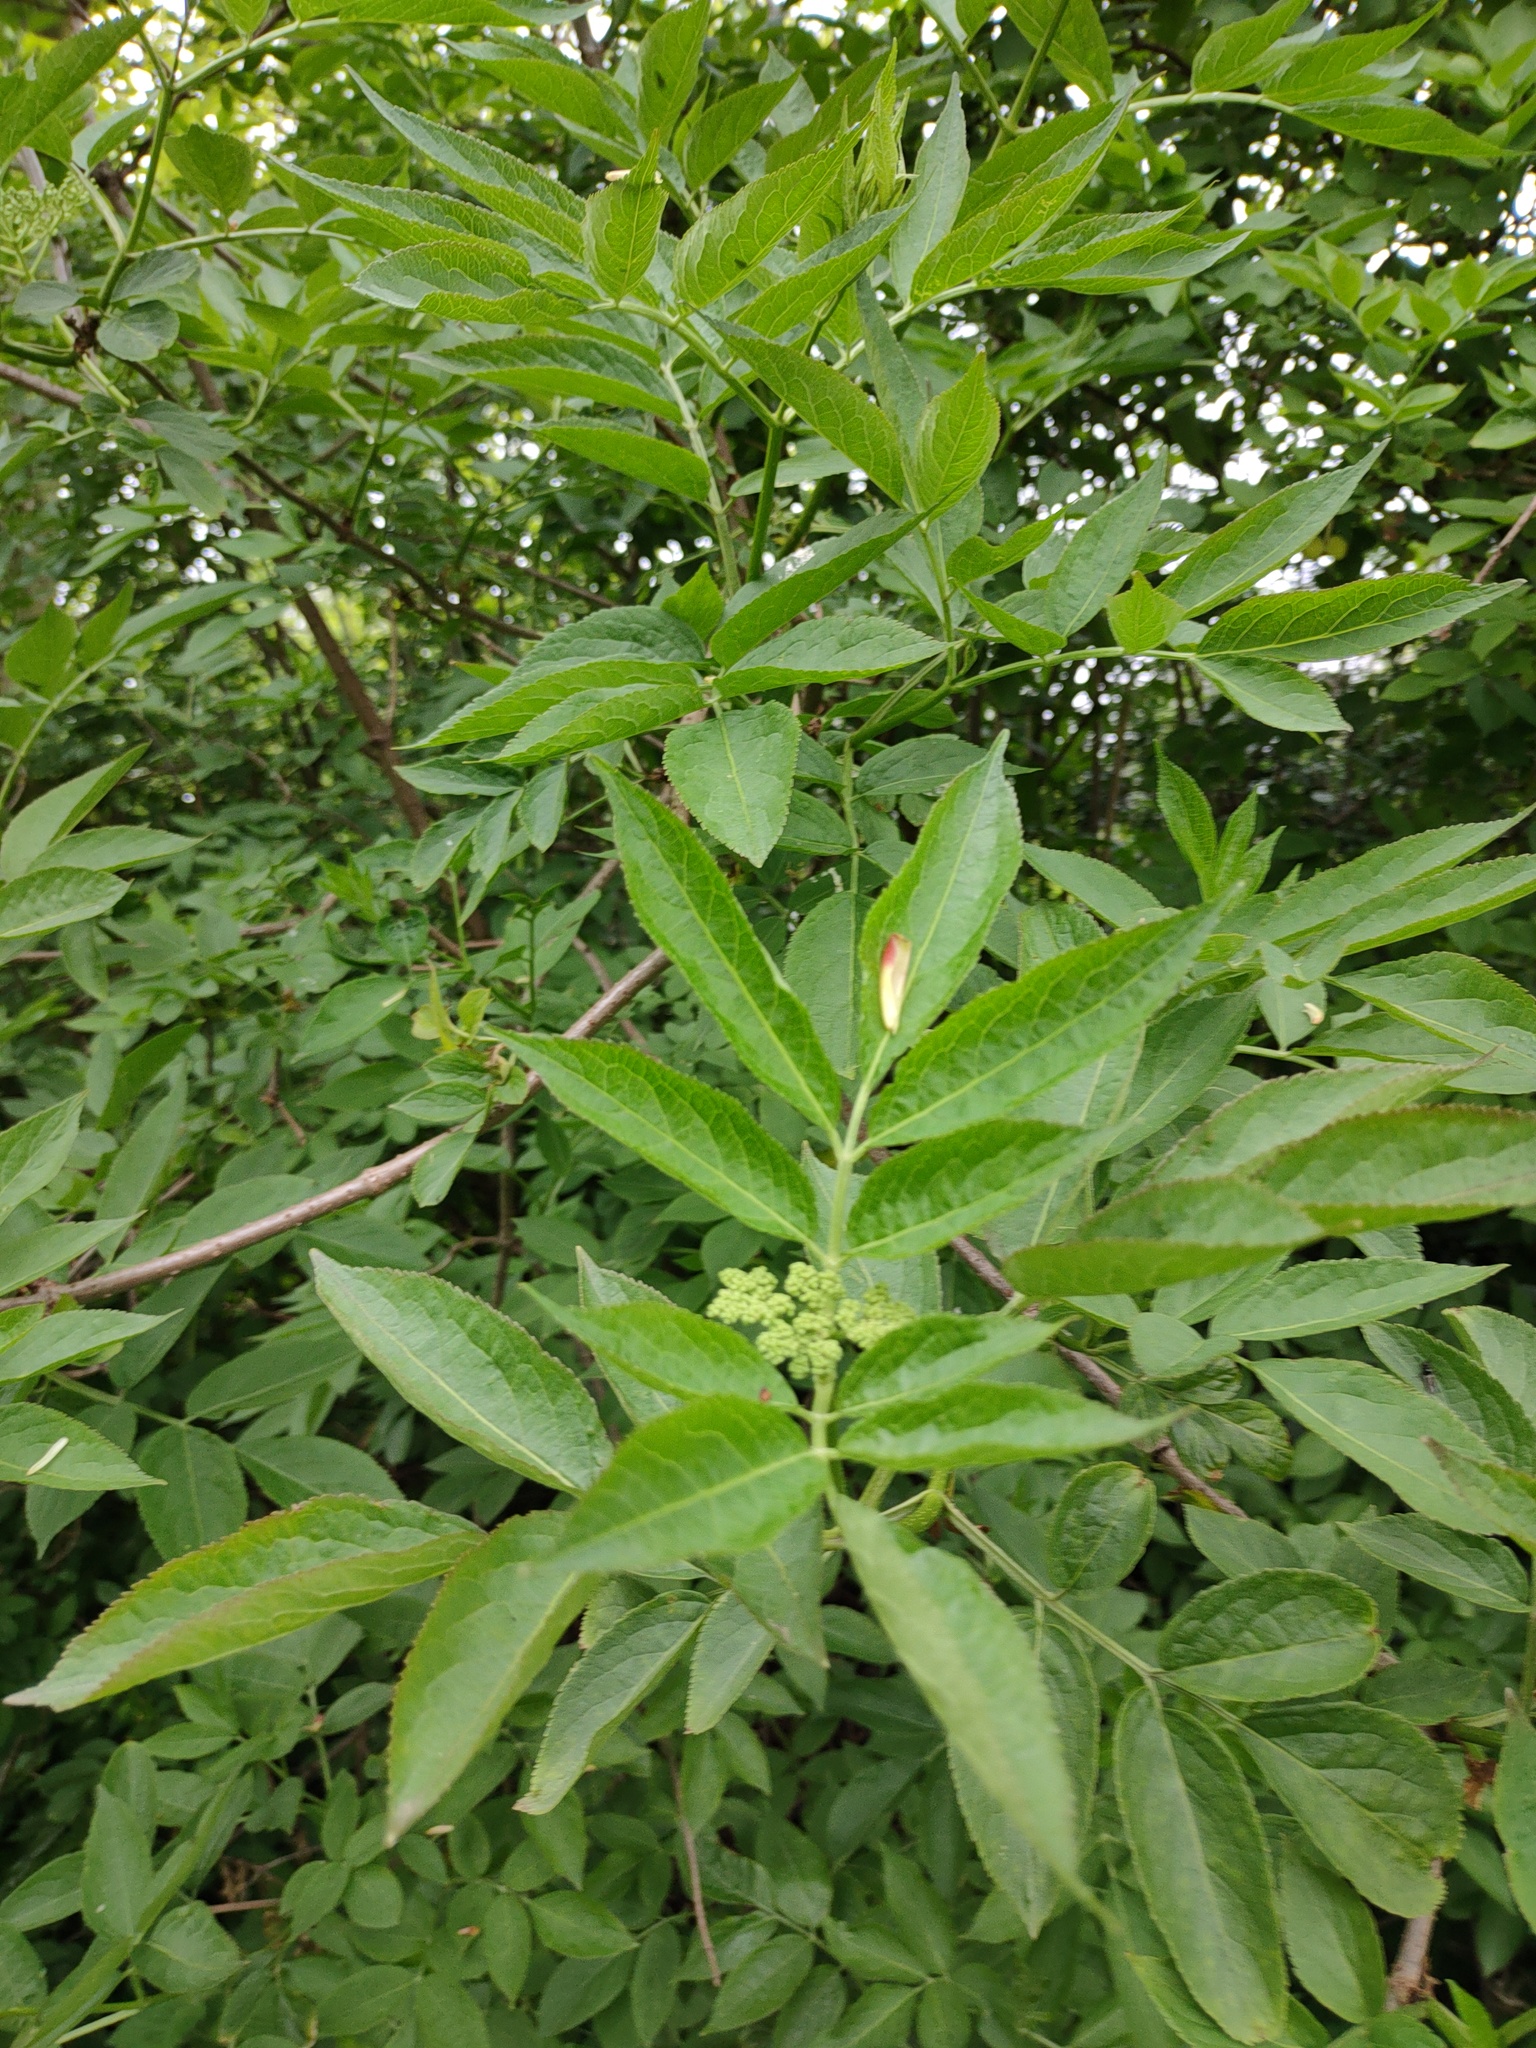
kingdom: Plantae
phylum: Tracheophyta
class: Magnoliopsida
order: Dipsacales
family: Viburnaceae
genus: Sambucus
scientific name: Sambucus nigra
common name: Elder
